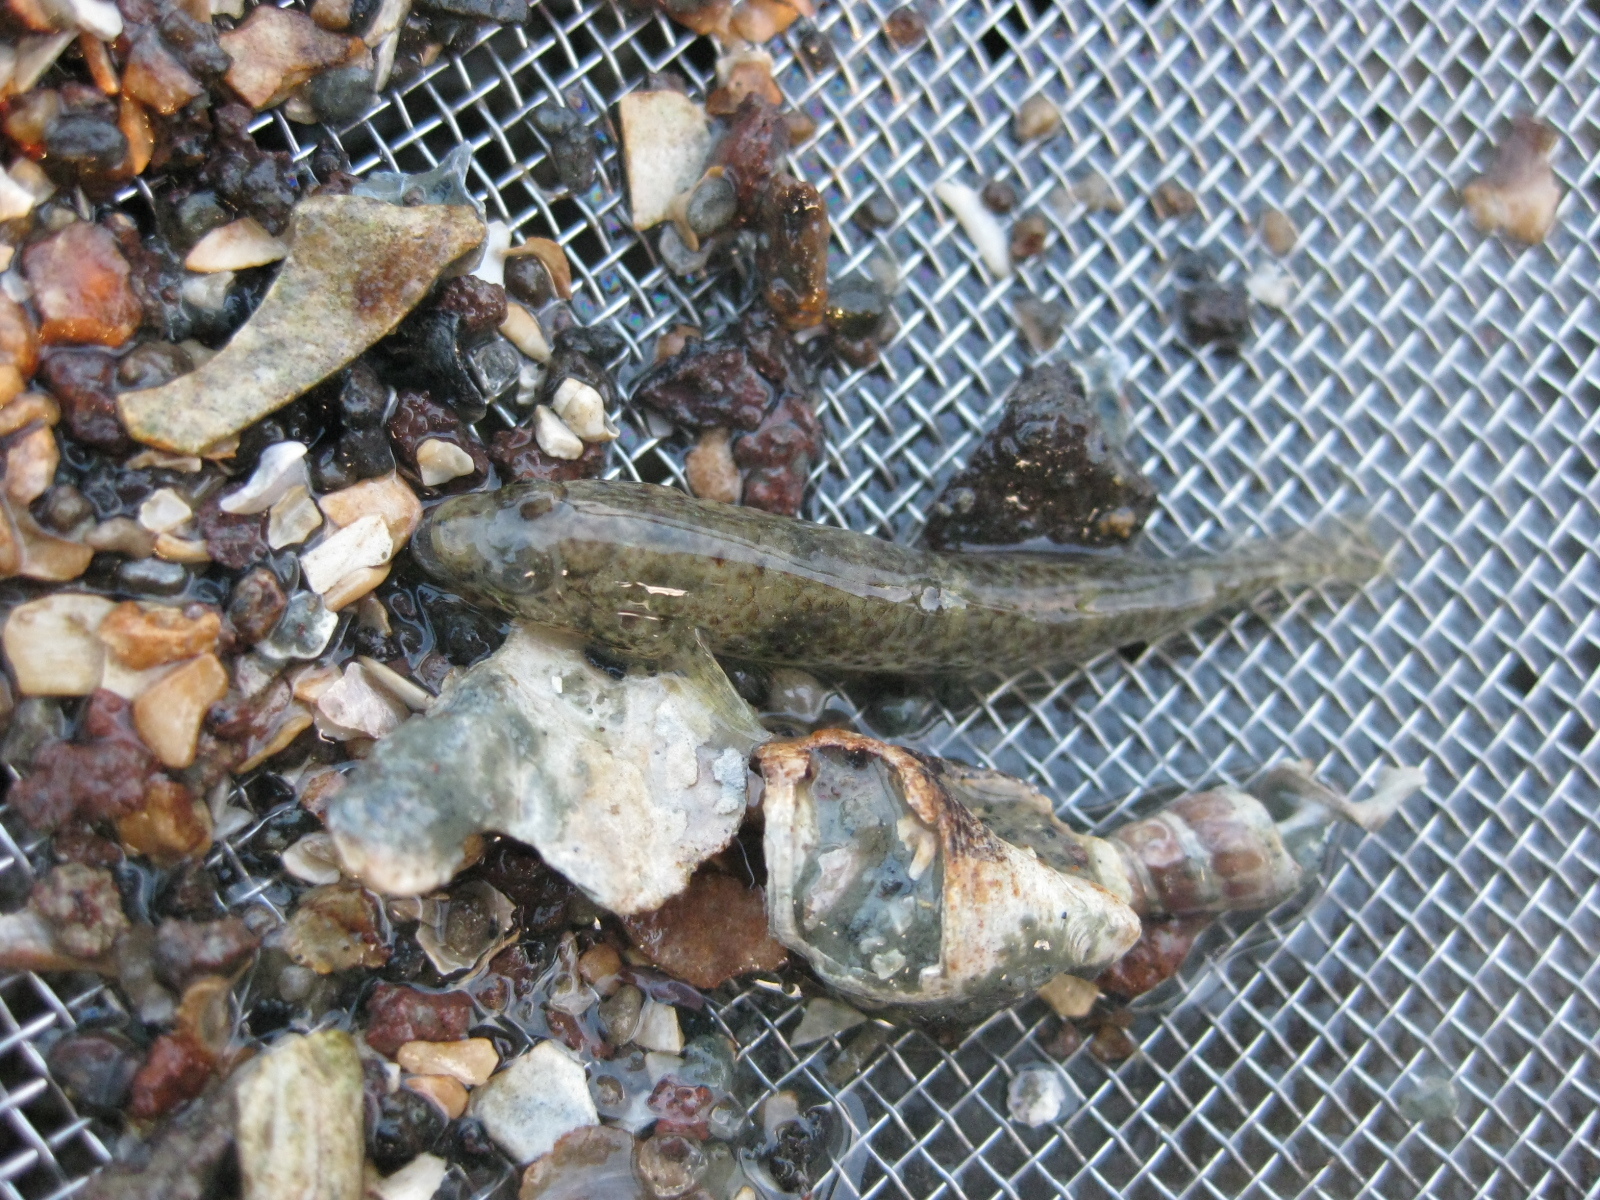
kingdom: Animalia
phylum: Chordata
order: Perciformes
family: Gobiidae
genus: Favonigobius
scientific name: Favonigobius exquisitus
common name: Exquisite sand-goby
